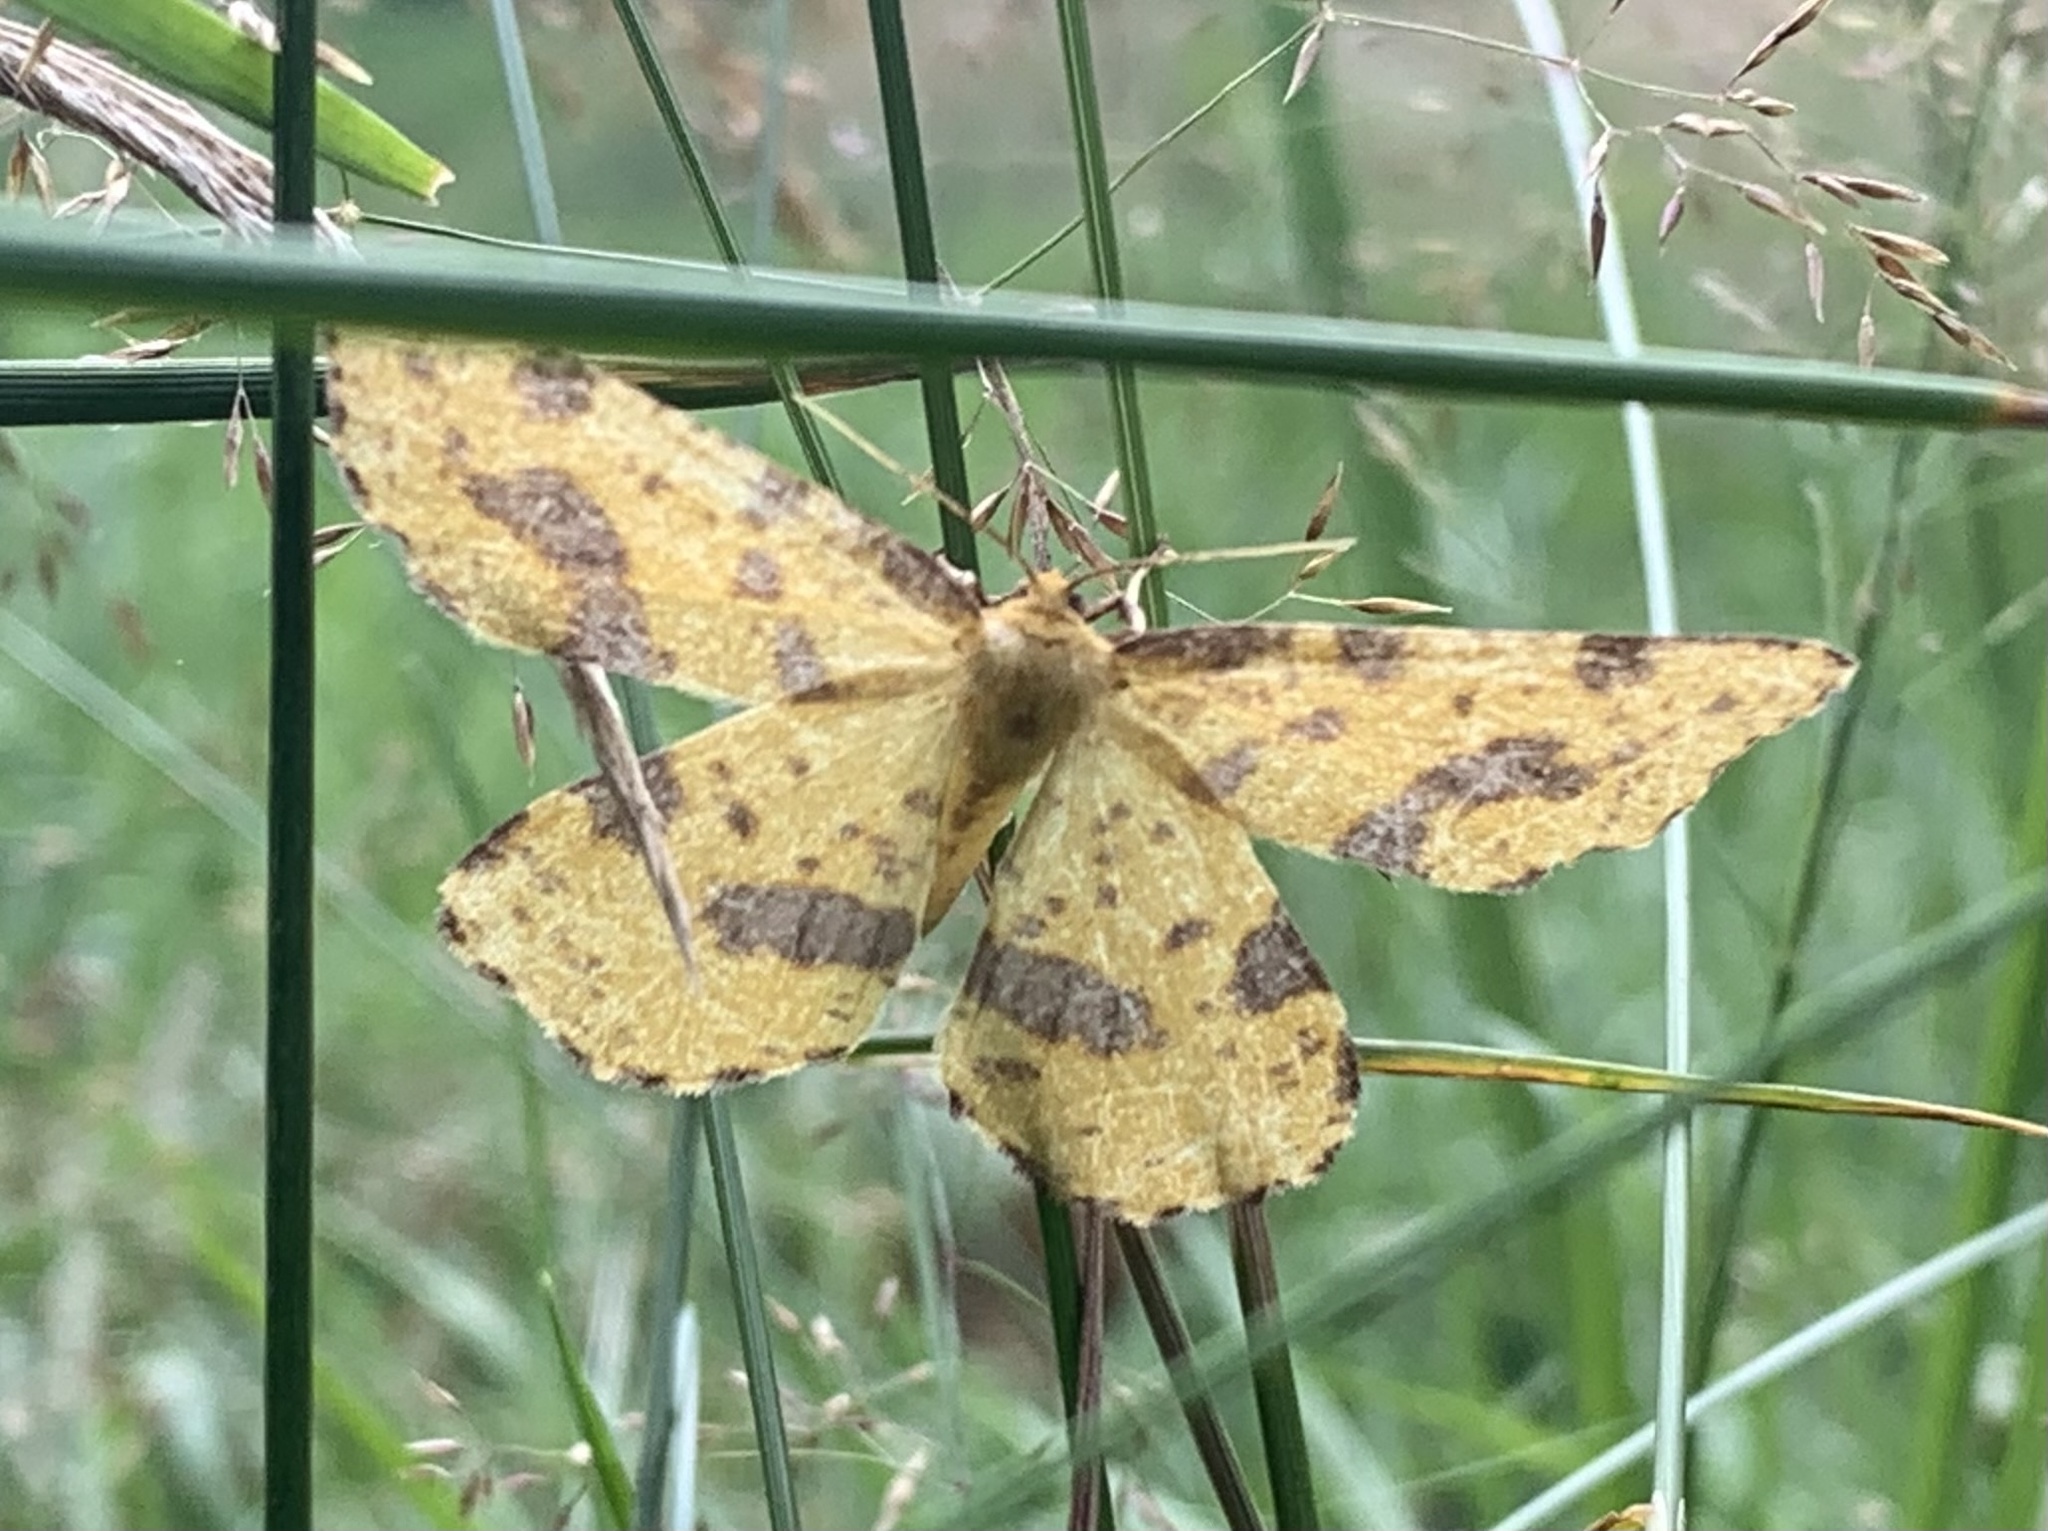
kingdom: Animalia
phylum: Arthropoda
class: Insecta
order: Lepidoptera
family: Geometridae
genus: Xanthotype
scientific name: Xanthotype
